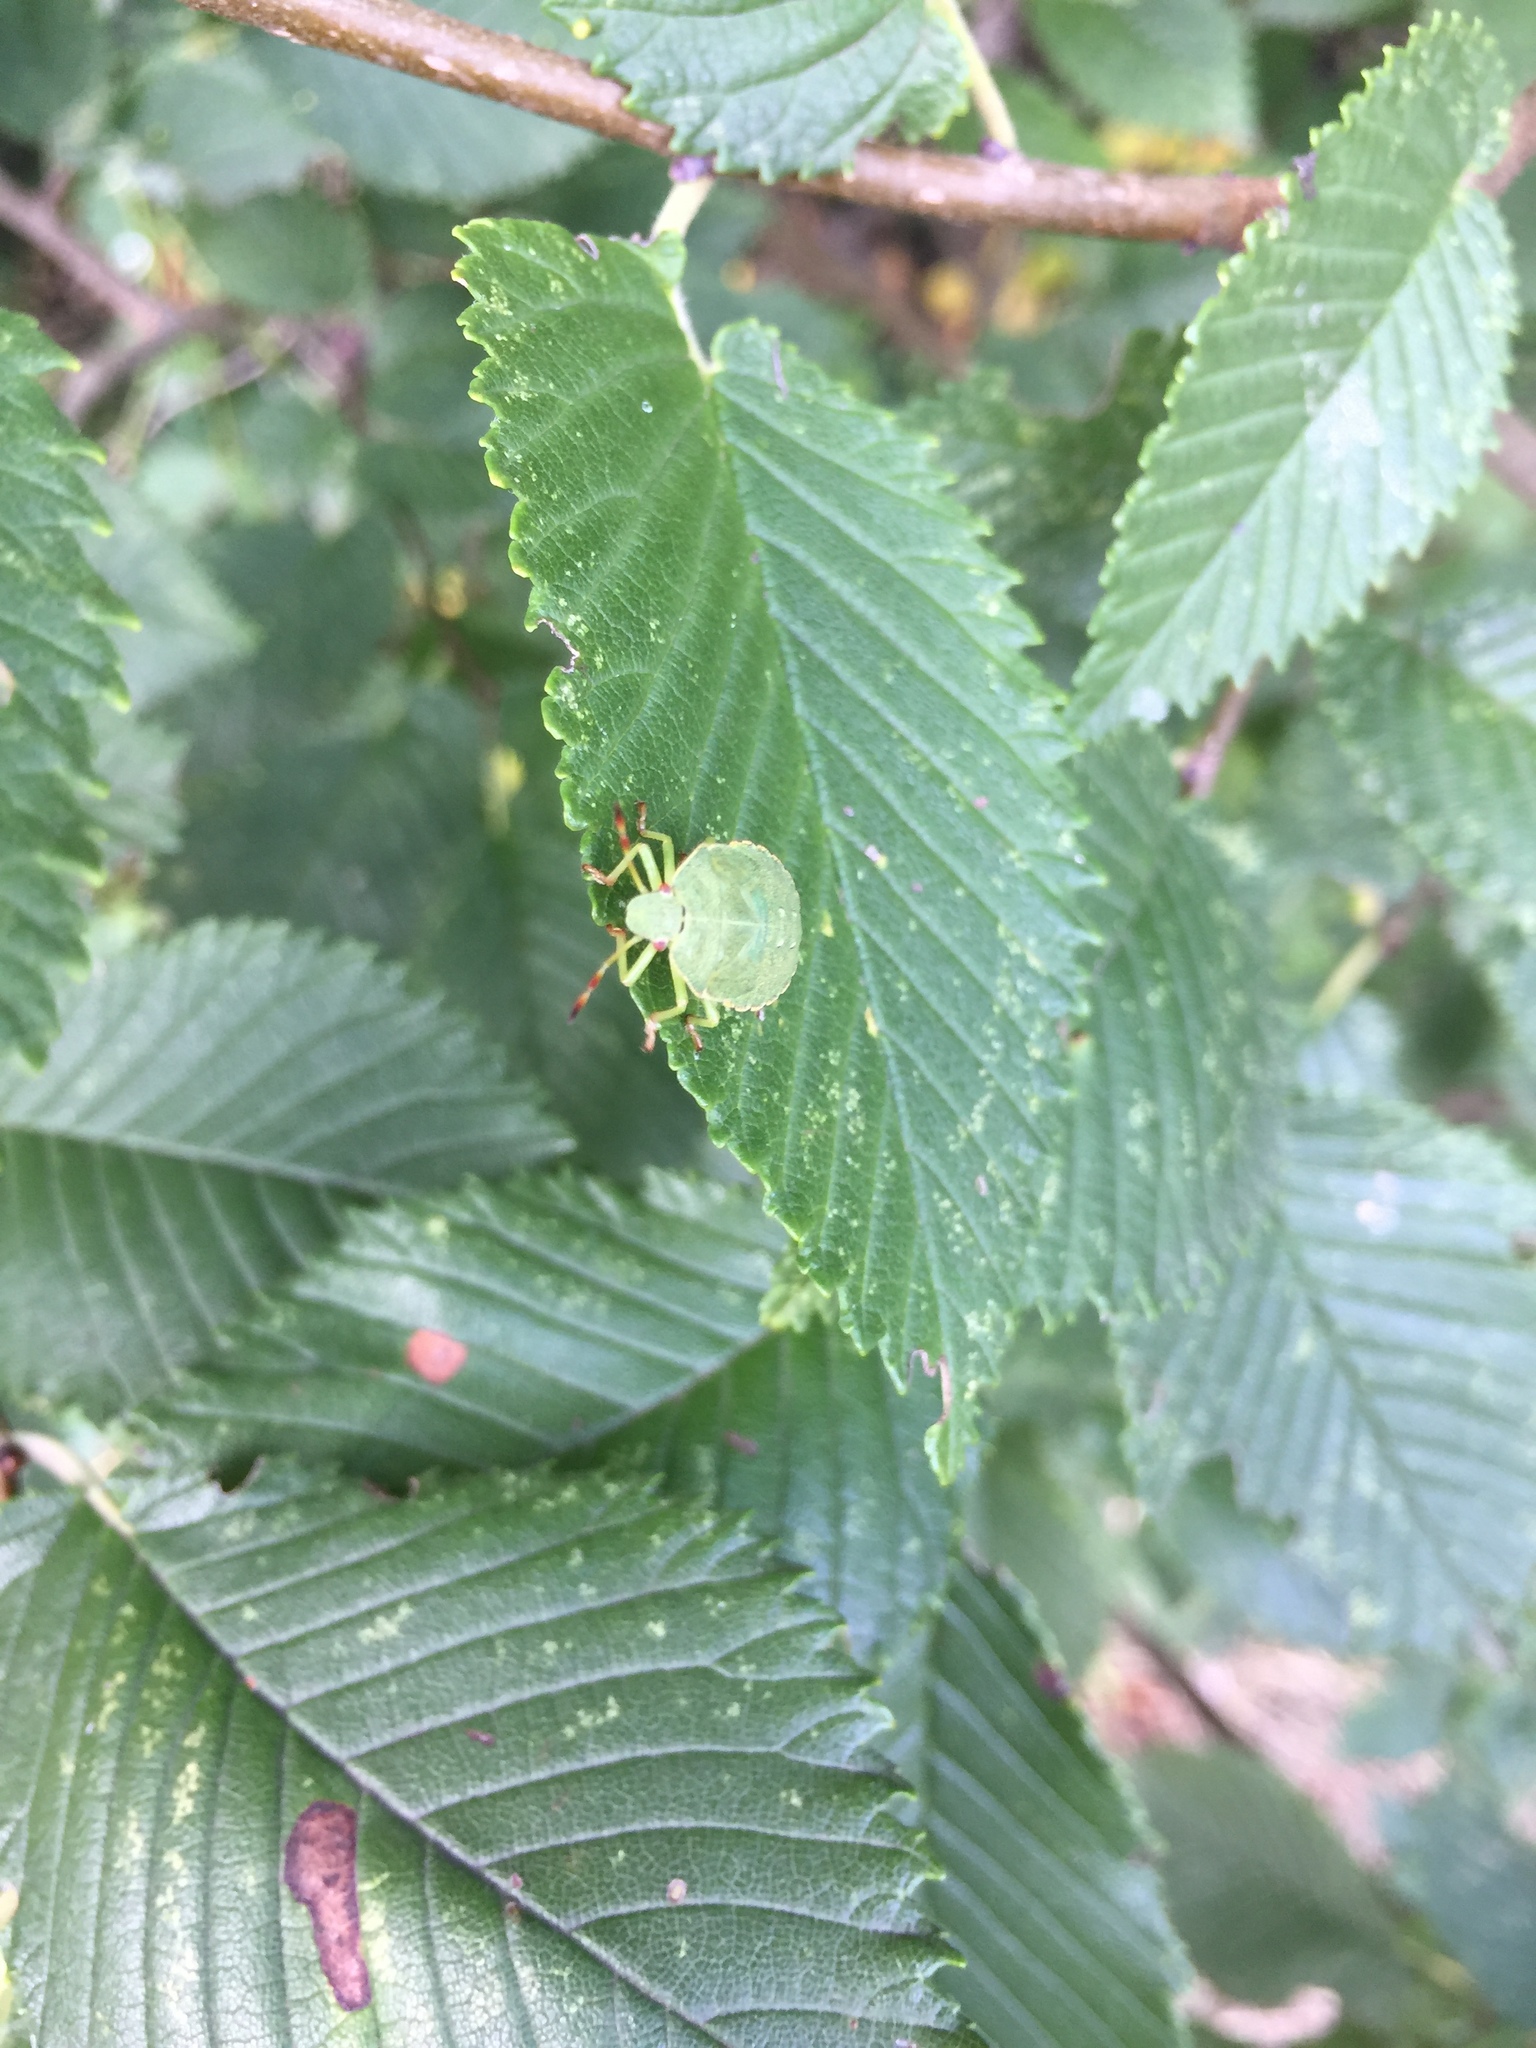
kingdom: Animalia
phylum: Arthropoda
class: Insecta
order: Hemiptera
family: Pentatomidae
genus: Palomena
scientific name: Palomena prasina
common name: Green shieldbug
